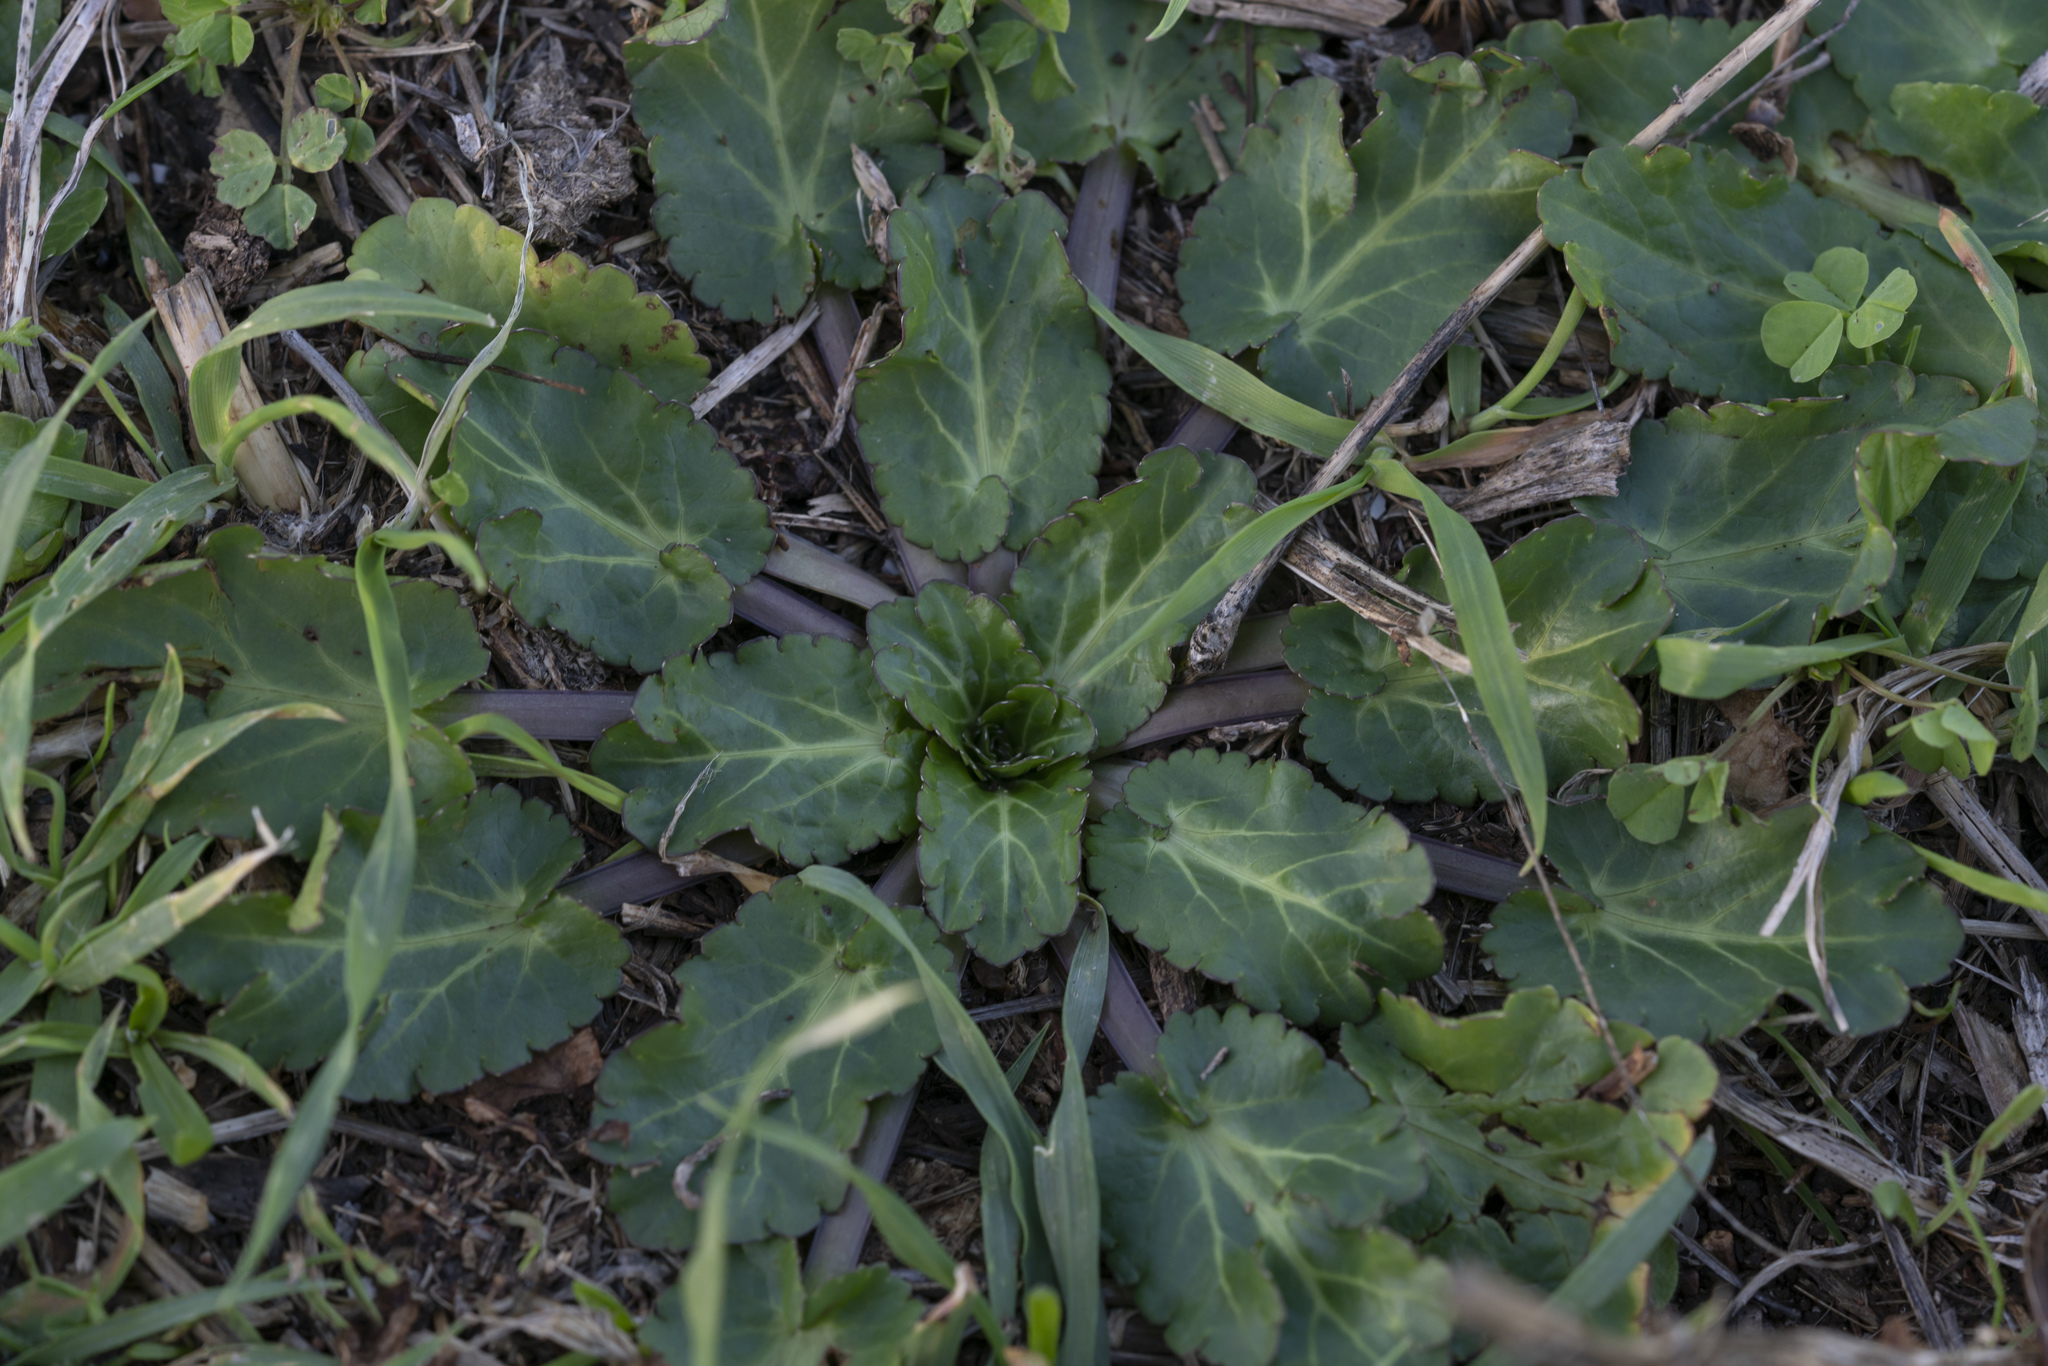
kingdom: Plantae
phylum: Tracheophyta
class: Magnoliopsida
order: Apiales
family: Apiaceae
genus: Eryngium
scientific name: Eryngium
